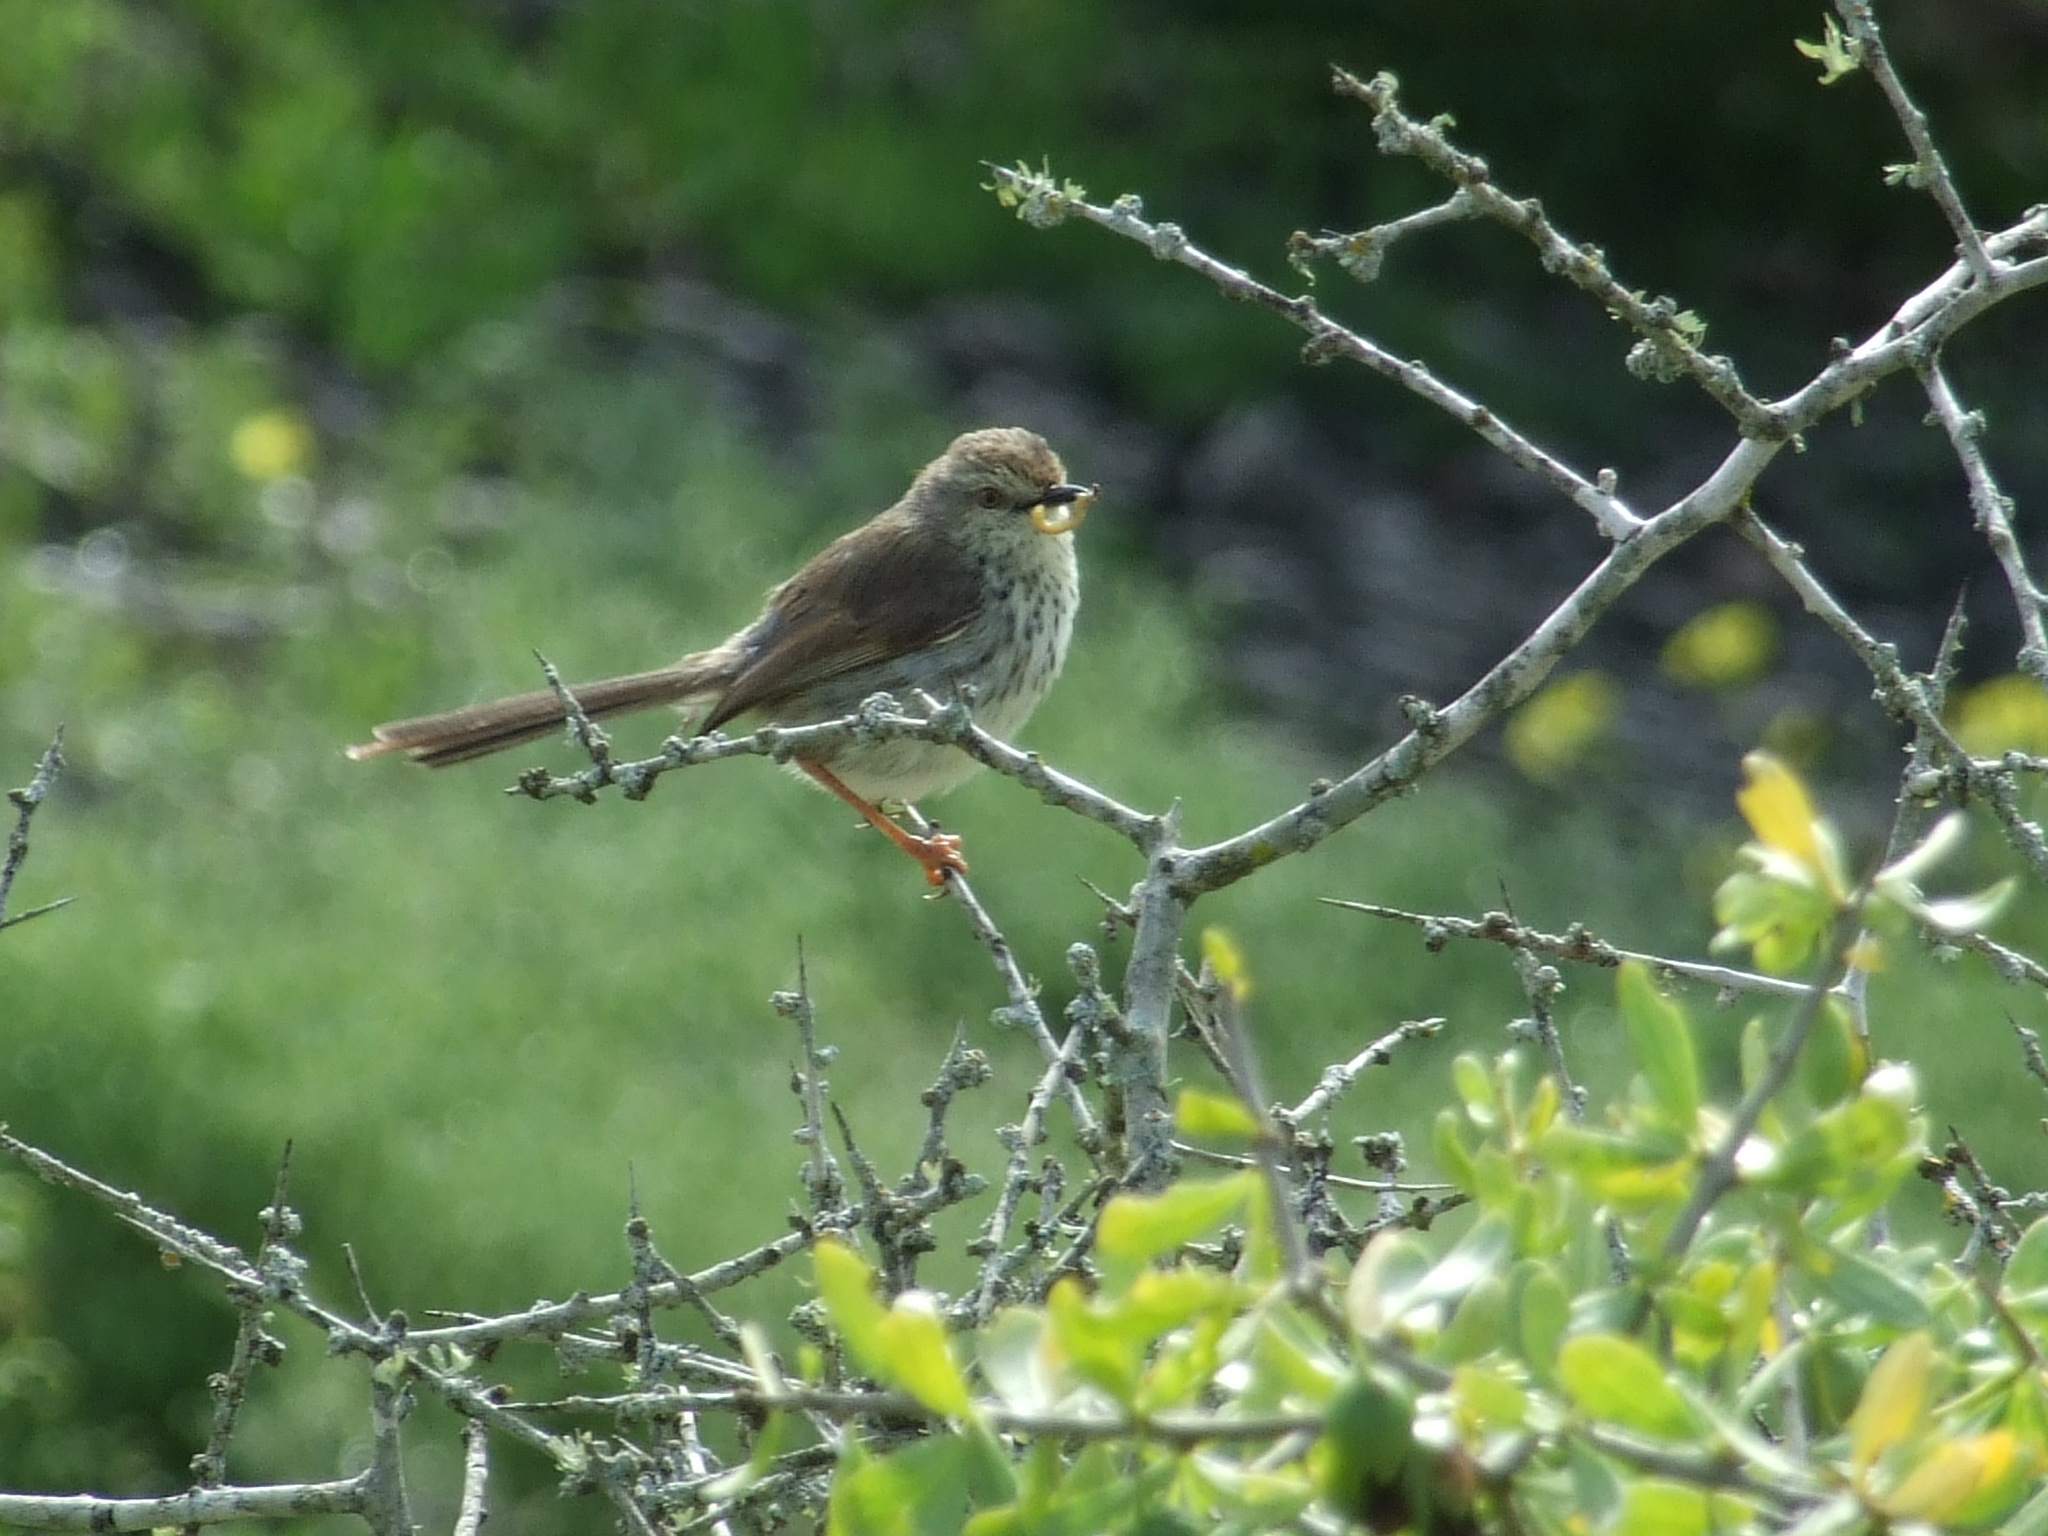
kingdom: Animalia
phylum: Chordata
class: Aves
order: Passeriformes
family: Cisticolidae
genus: Prinia
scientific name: Prinia maculosa
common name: Karoo prinia
